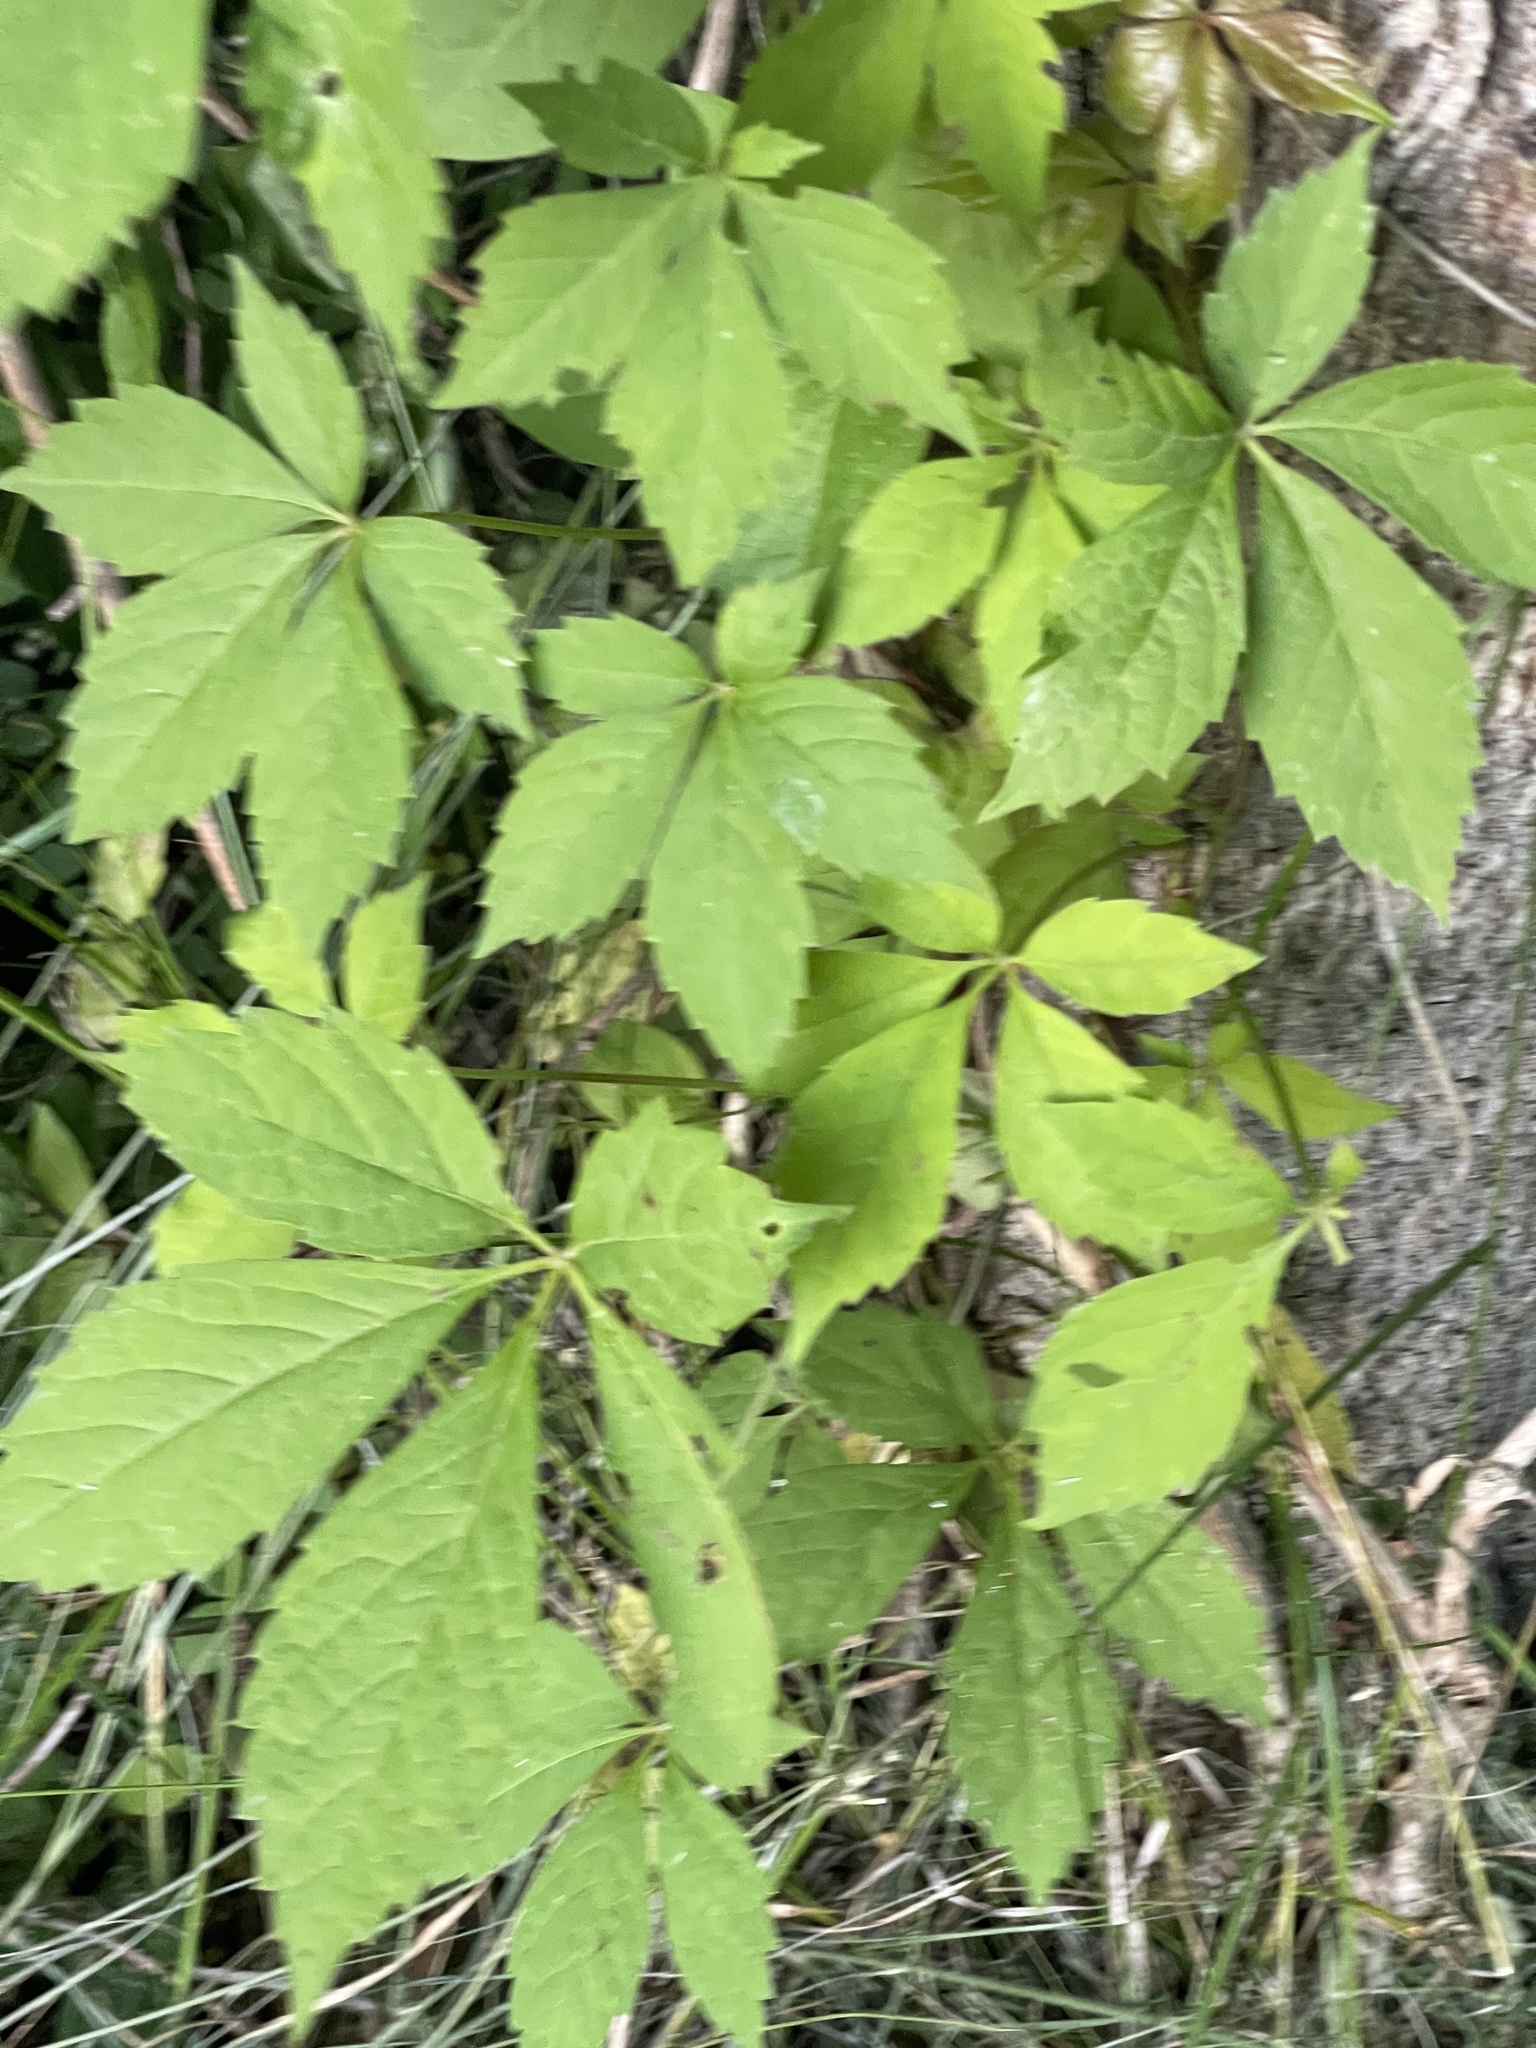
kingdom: Plantae
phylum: Tracheophyta
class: Magnoliopsida
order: Vitales
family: Vitaceae
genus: Parthenocissus
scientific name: Parthenocissus quinquefolia
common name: Virginia-creeper
